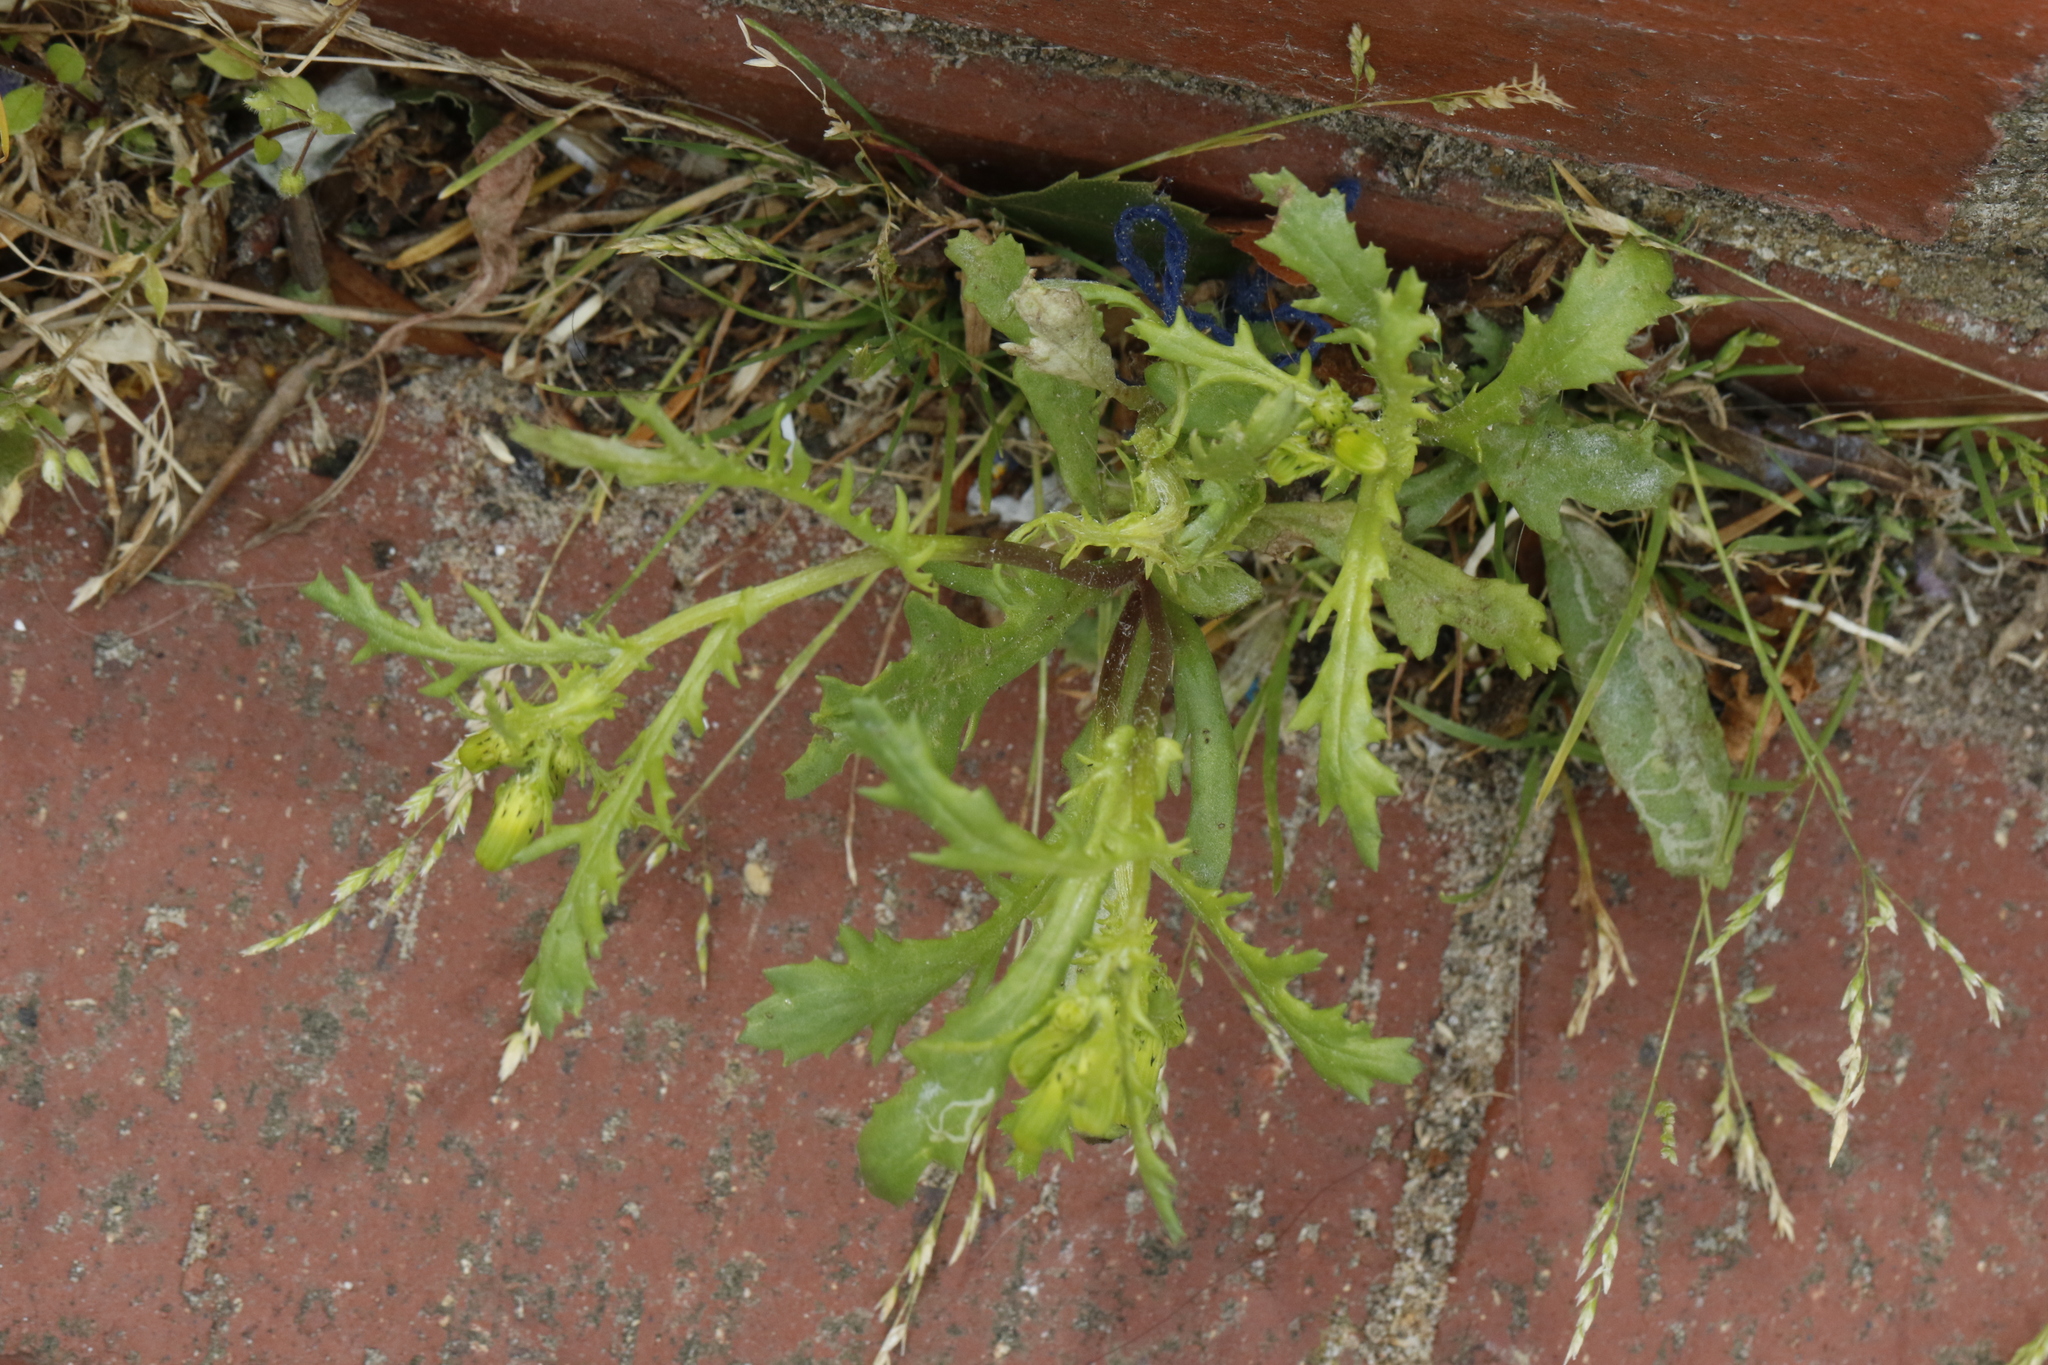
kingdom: Plantae
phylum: Tracheophyta
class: Magnoliopsida
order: Asterales
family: Asteraceae
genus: Senecio
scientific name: Senecio vulgaris
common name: Old-man-in-the-spring
